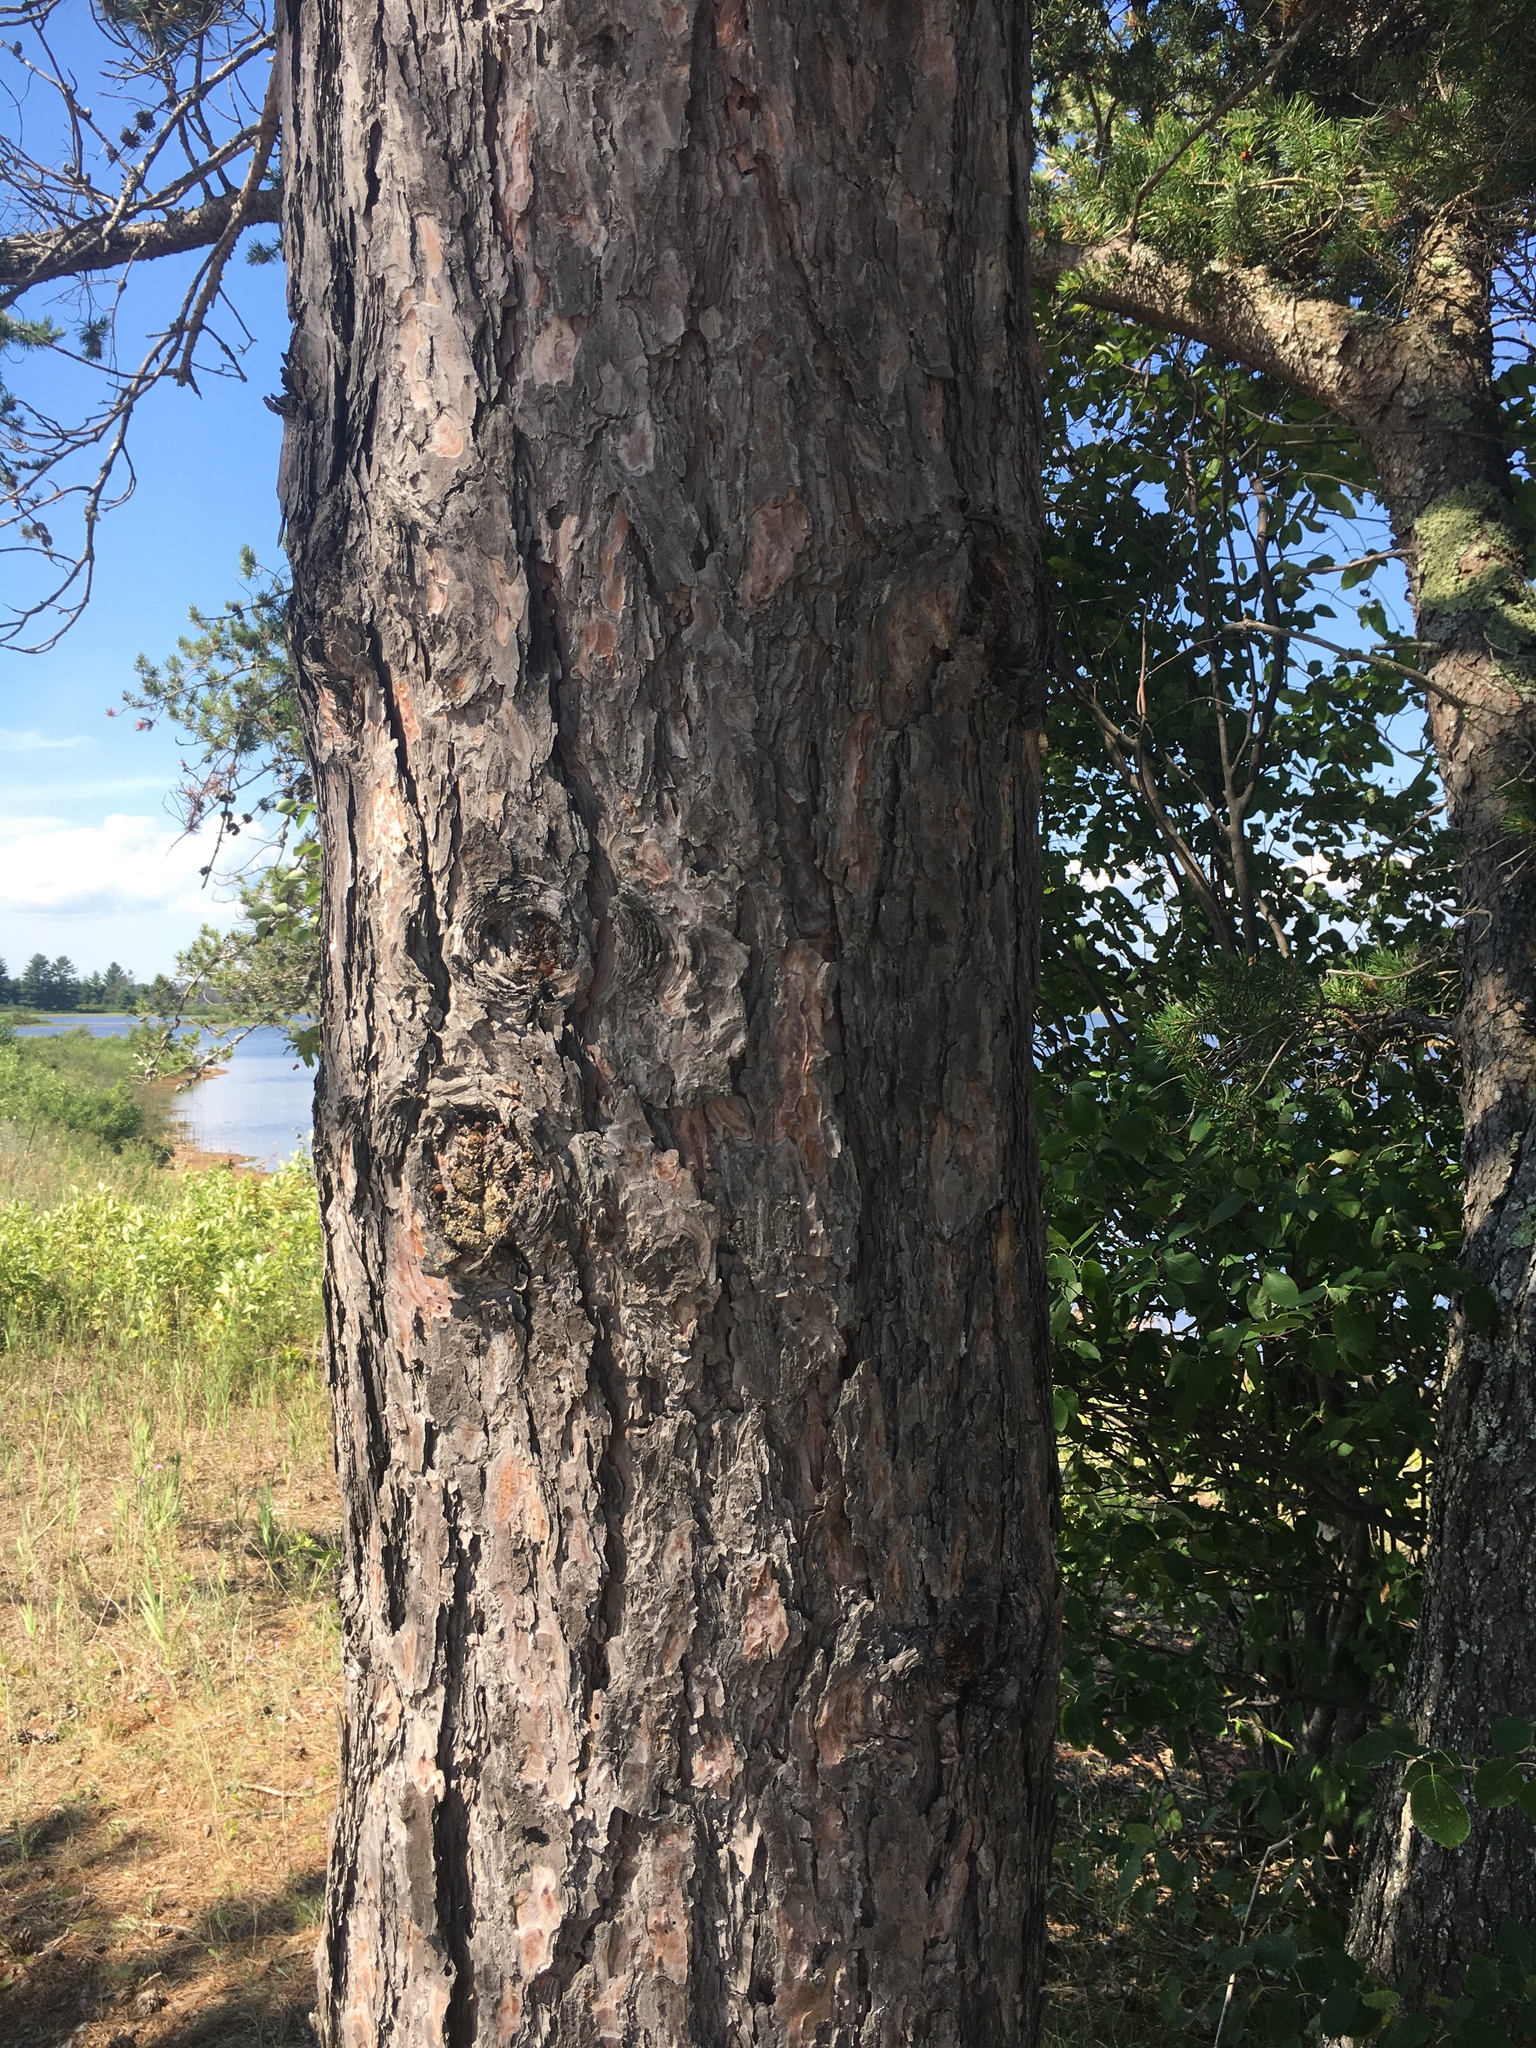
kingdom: Plantae
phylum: Tracheophyta
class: Pinopsida
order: Pinales
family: Pinaceae
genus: Pinus
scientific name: Pinus resinosa
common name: Norway pine
